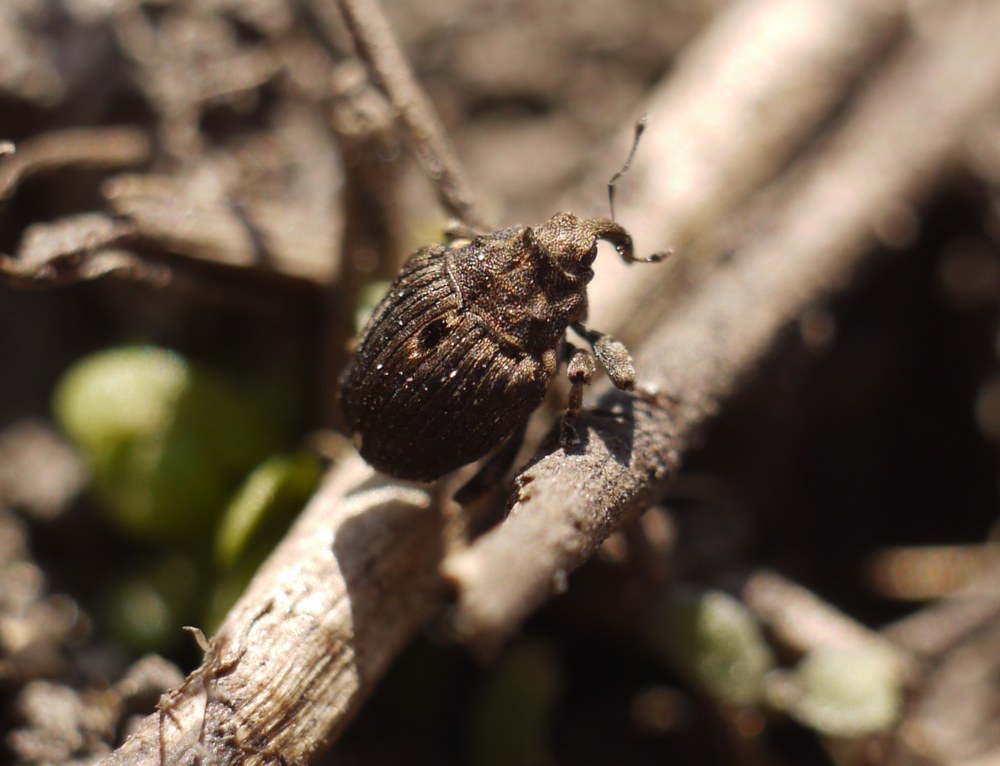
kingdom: Animalia
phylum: Arthropoda
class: Insecta
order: Coleoptera
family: Curculionidae
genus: Stenocarus
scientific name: Stenocarus cardui
